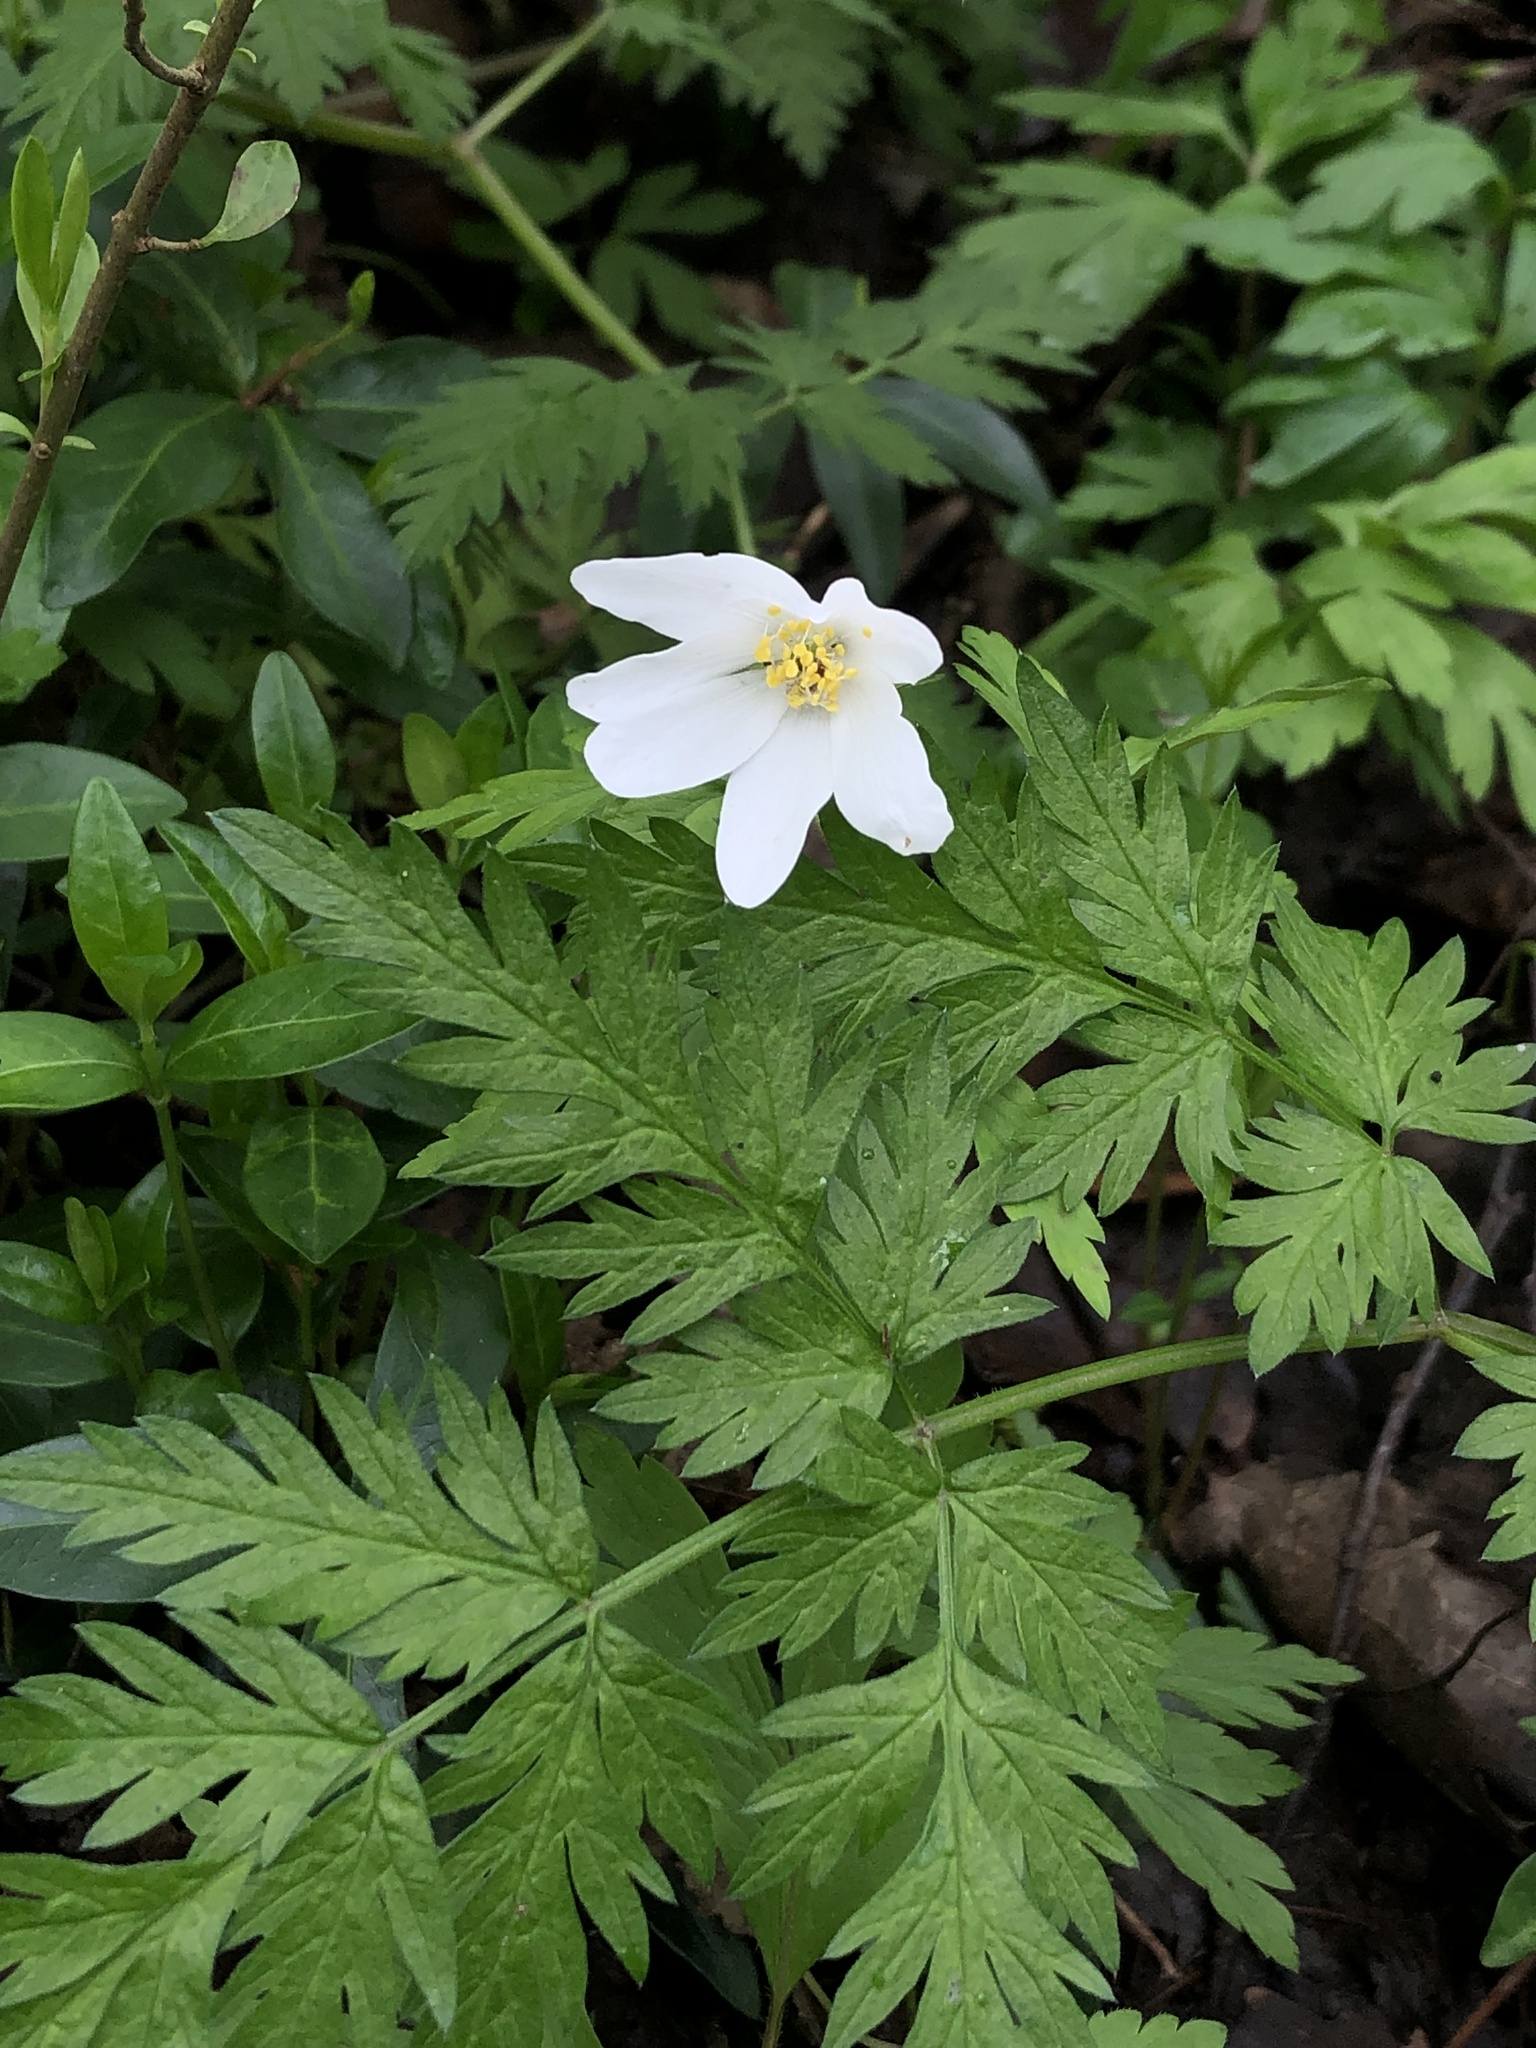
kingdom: Plantae
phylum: Tracheophyta
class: Magnoliopsida
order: Ranunculales
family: Ranunculaceae
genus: Anemone
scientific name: Anemone nemorosa
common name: Wood anemone
